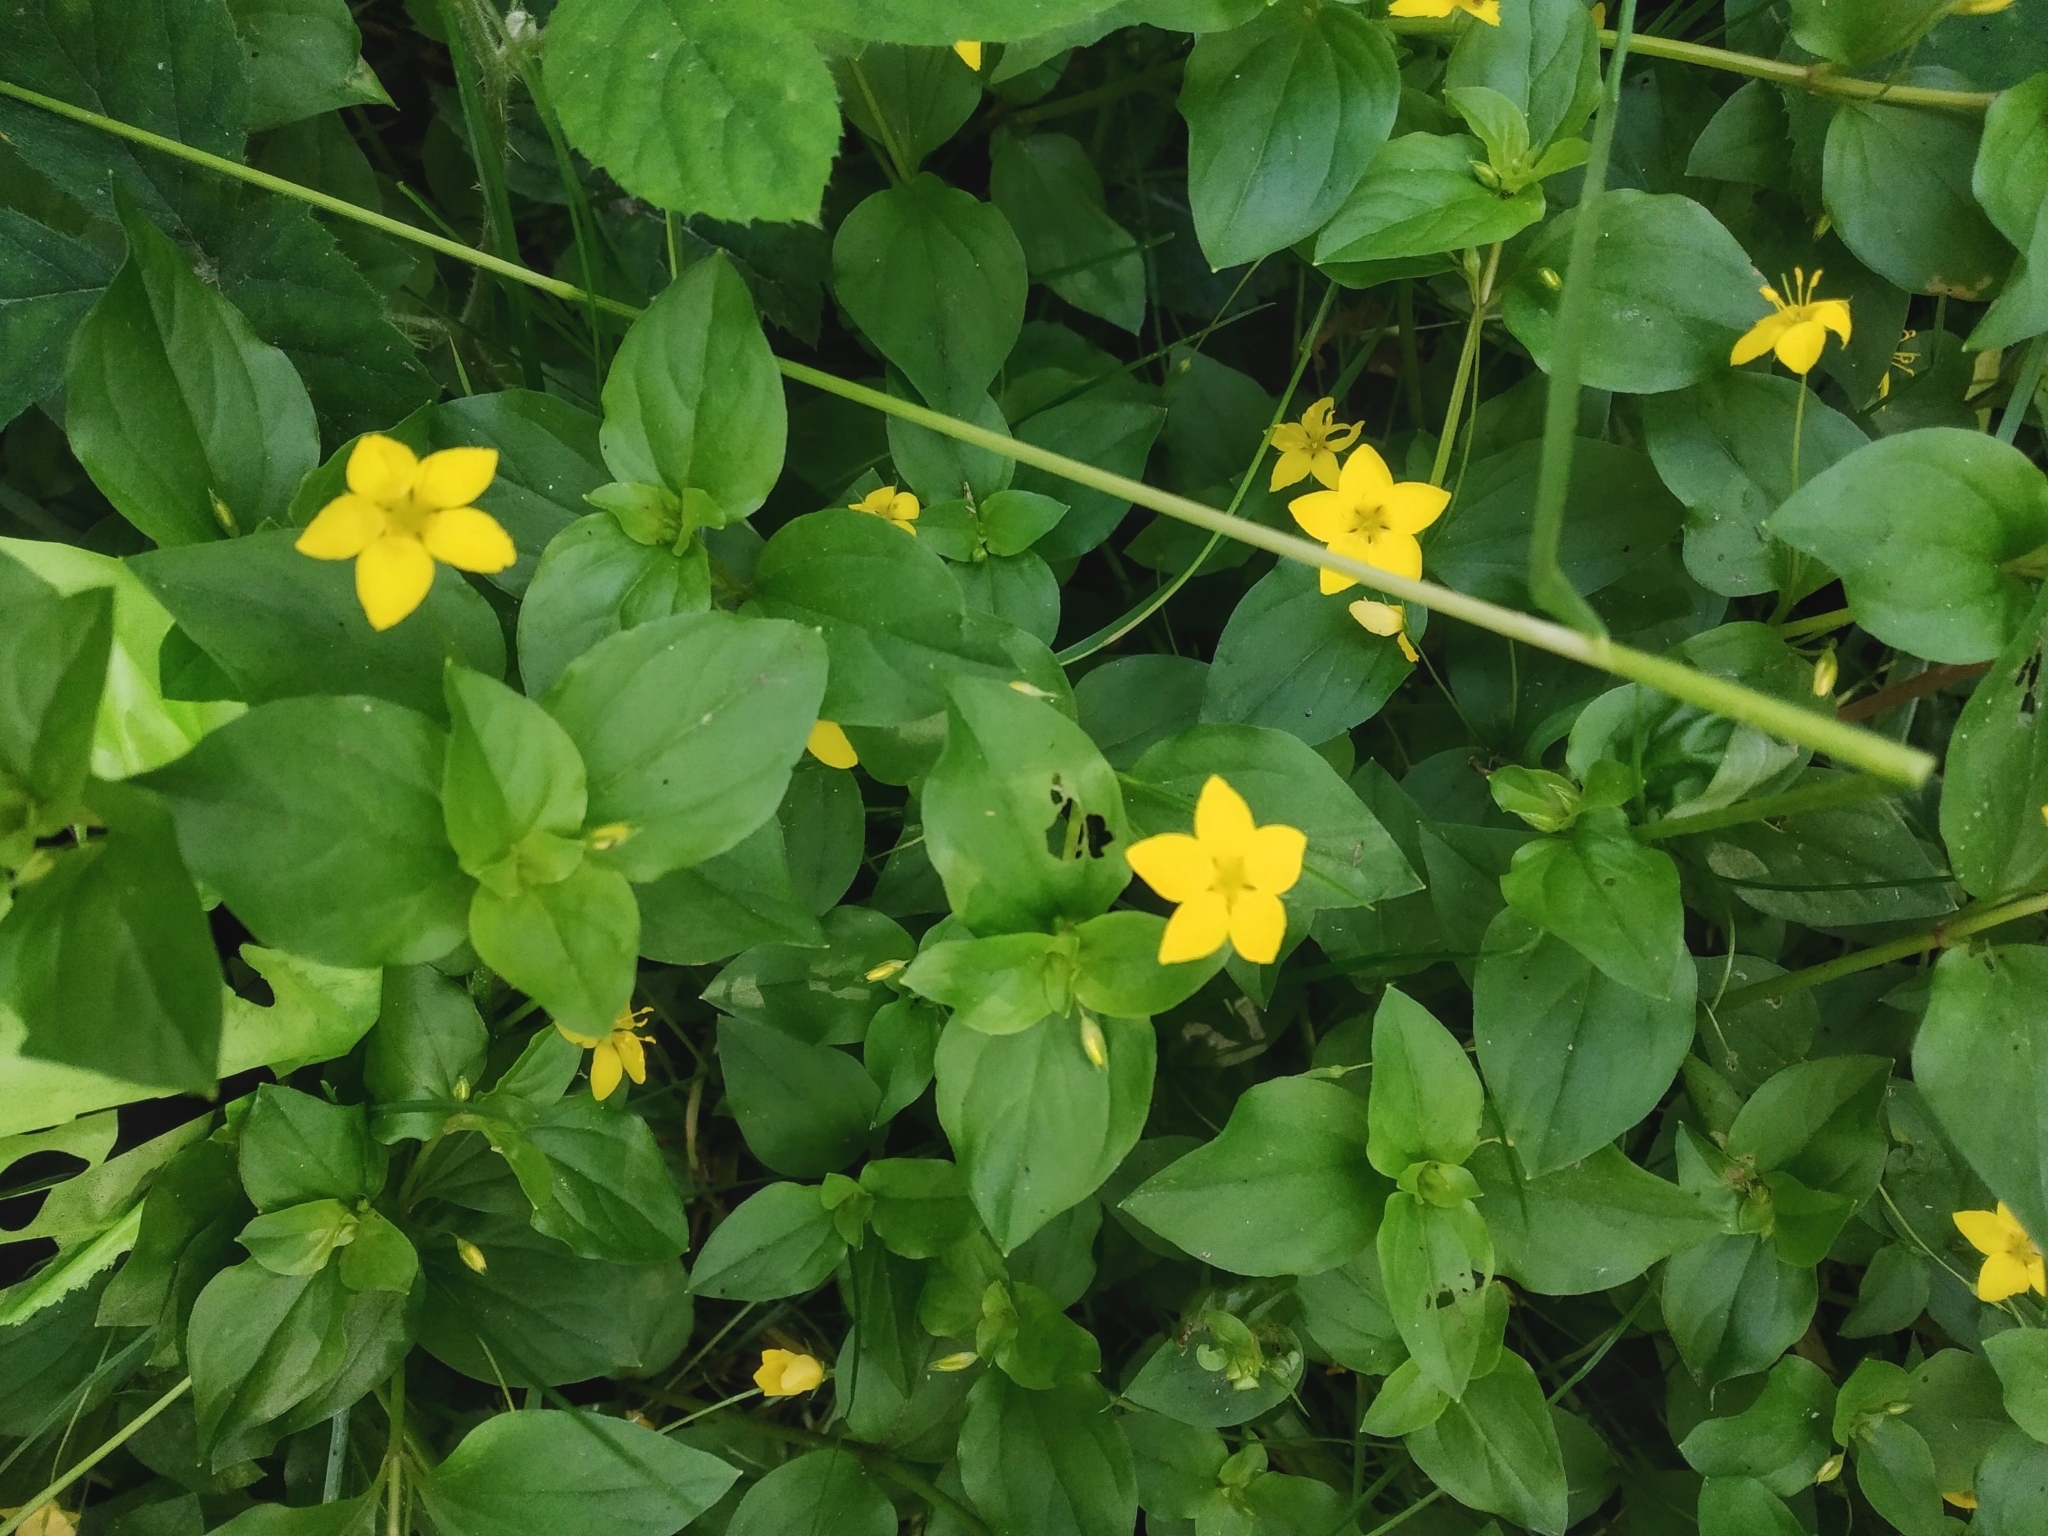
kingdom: Plantae
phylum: Tracheophyta
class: Magnoliopsida
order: Ericales
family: Primulaceae
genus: Lysimachia
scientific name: Lysimachia nemorum
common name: Yellow pimpernel
